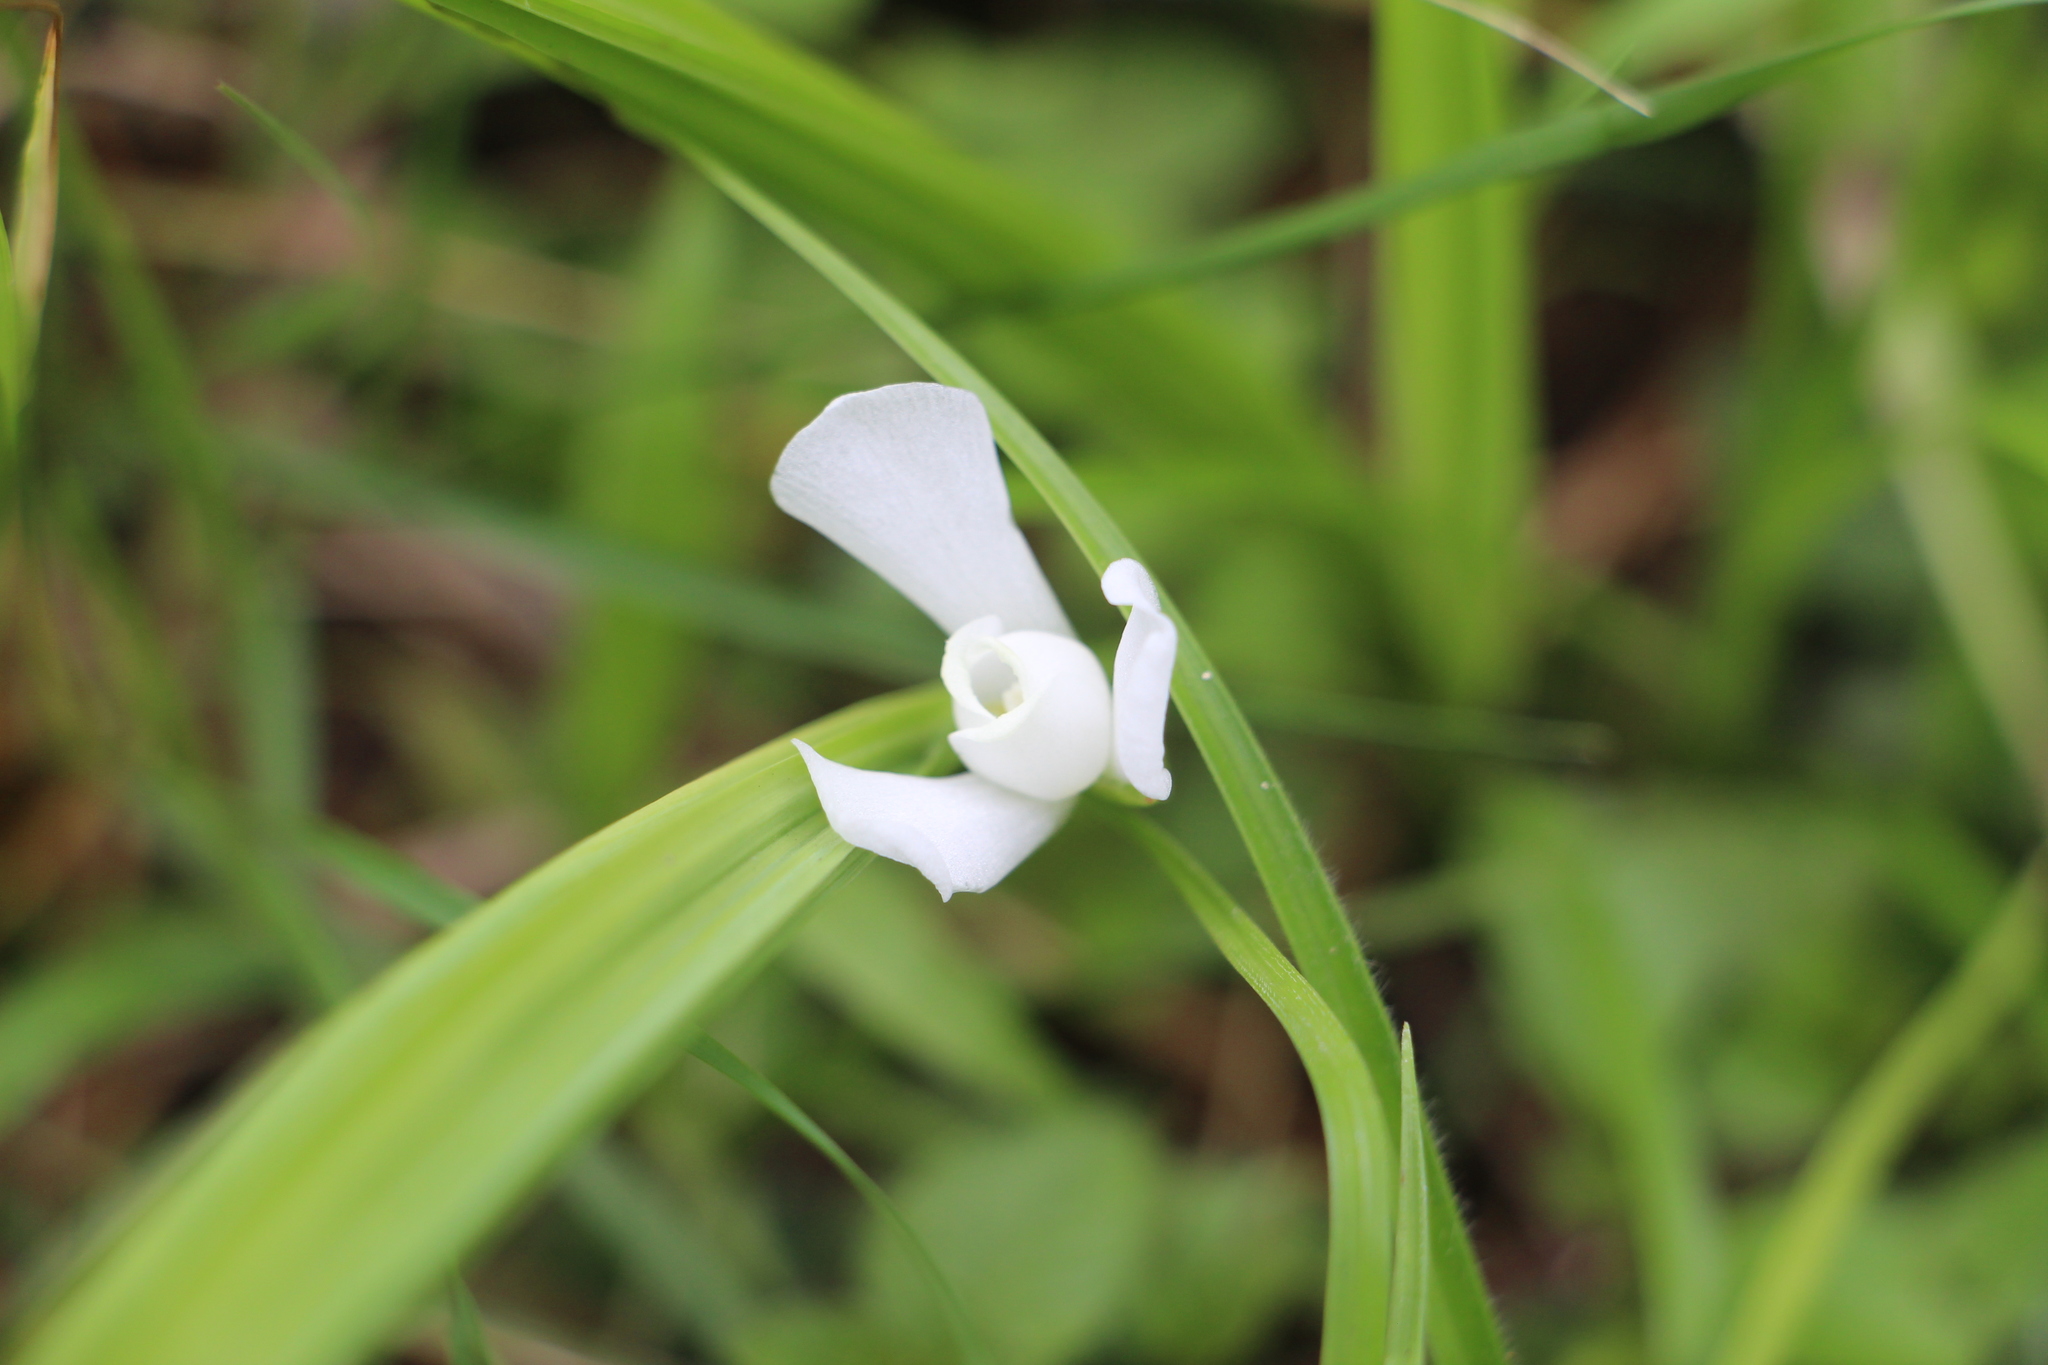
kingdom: Plantae
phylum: Tracheophyta
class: Liliopsida
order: Asparagales
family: Iridaceae
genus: Cipura
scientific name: Cipura paludosa
